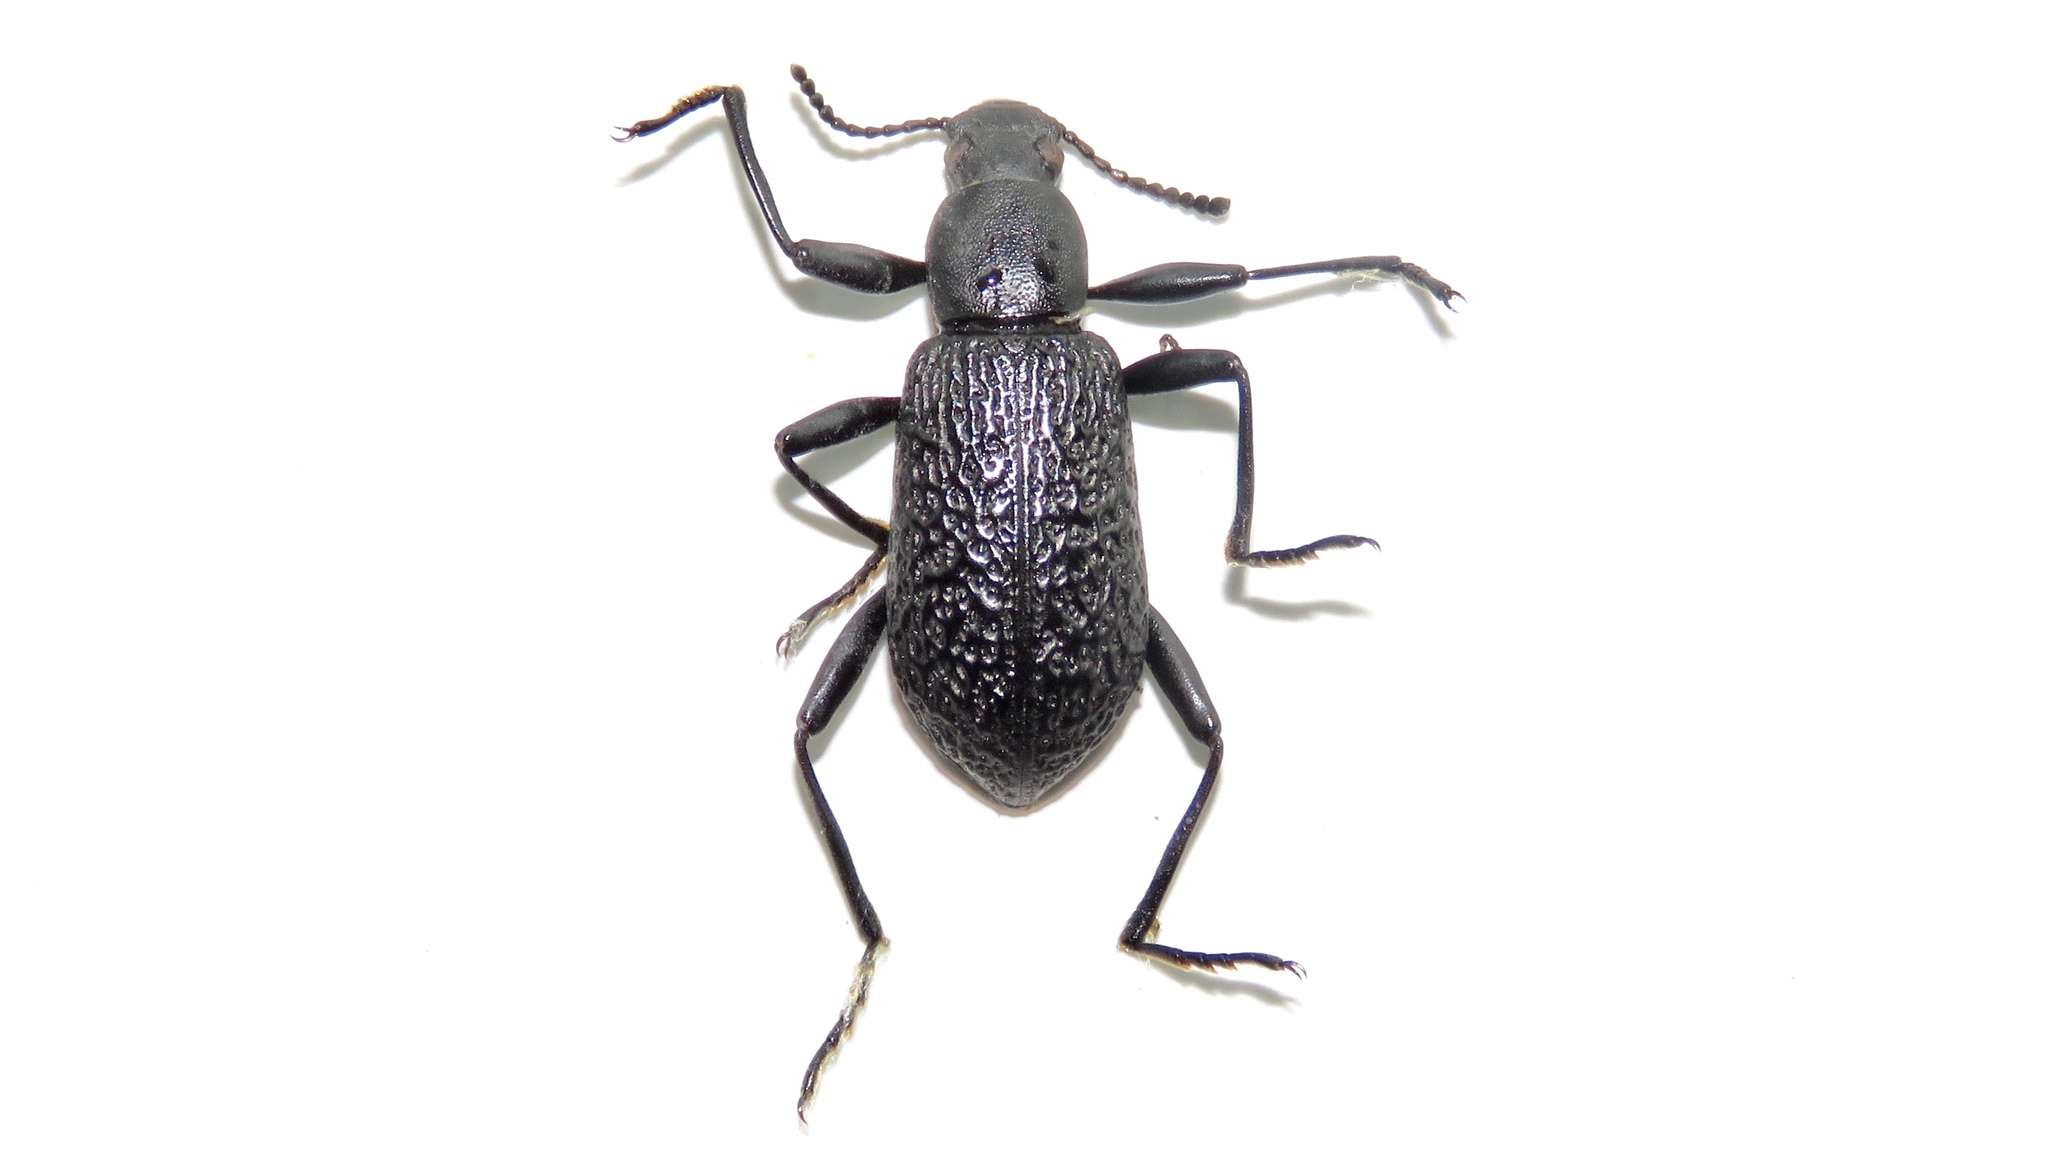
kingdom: Animalia
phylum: Arthropoda
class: Insecta
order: Coleoptera
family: Tenebrionidae
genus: Upis
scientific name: Upis ceramboides
